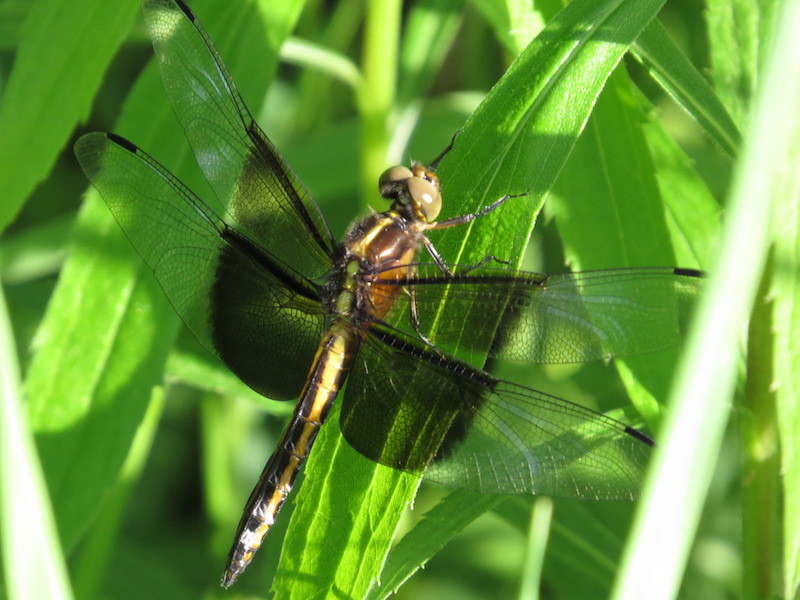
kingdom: Animalia
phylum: Arthropoda
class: Insecta
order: Odonata
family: Libellulidae
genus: Libellula
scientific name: Libellula luctuosa
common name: Widow skimmer
